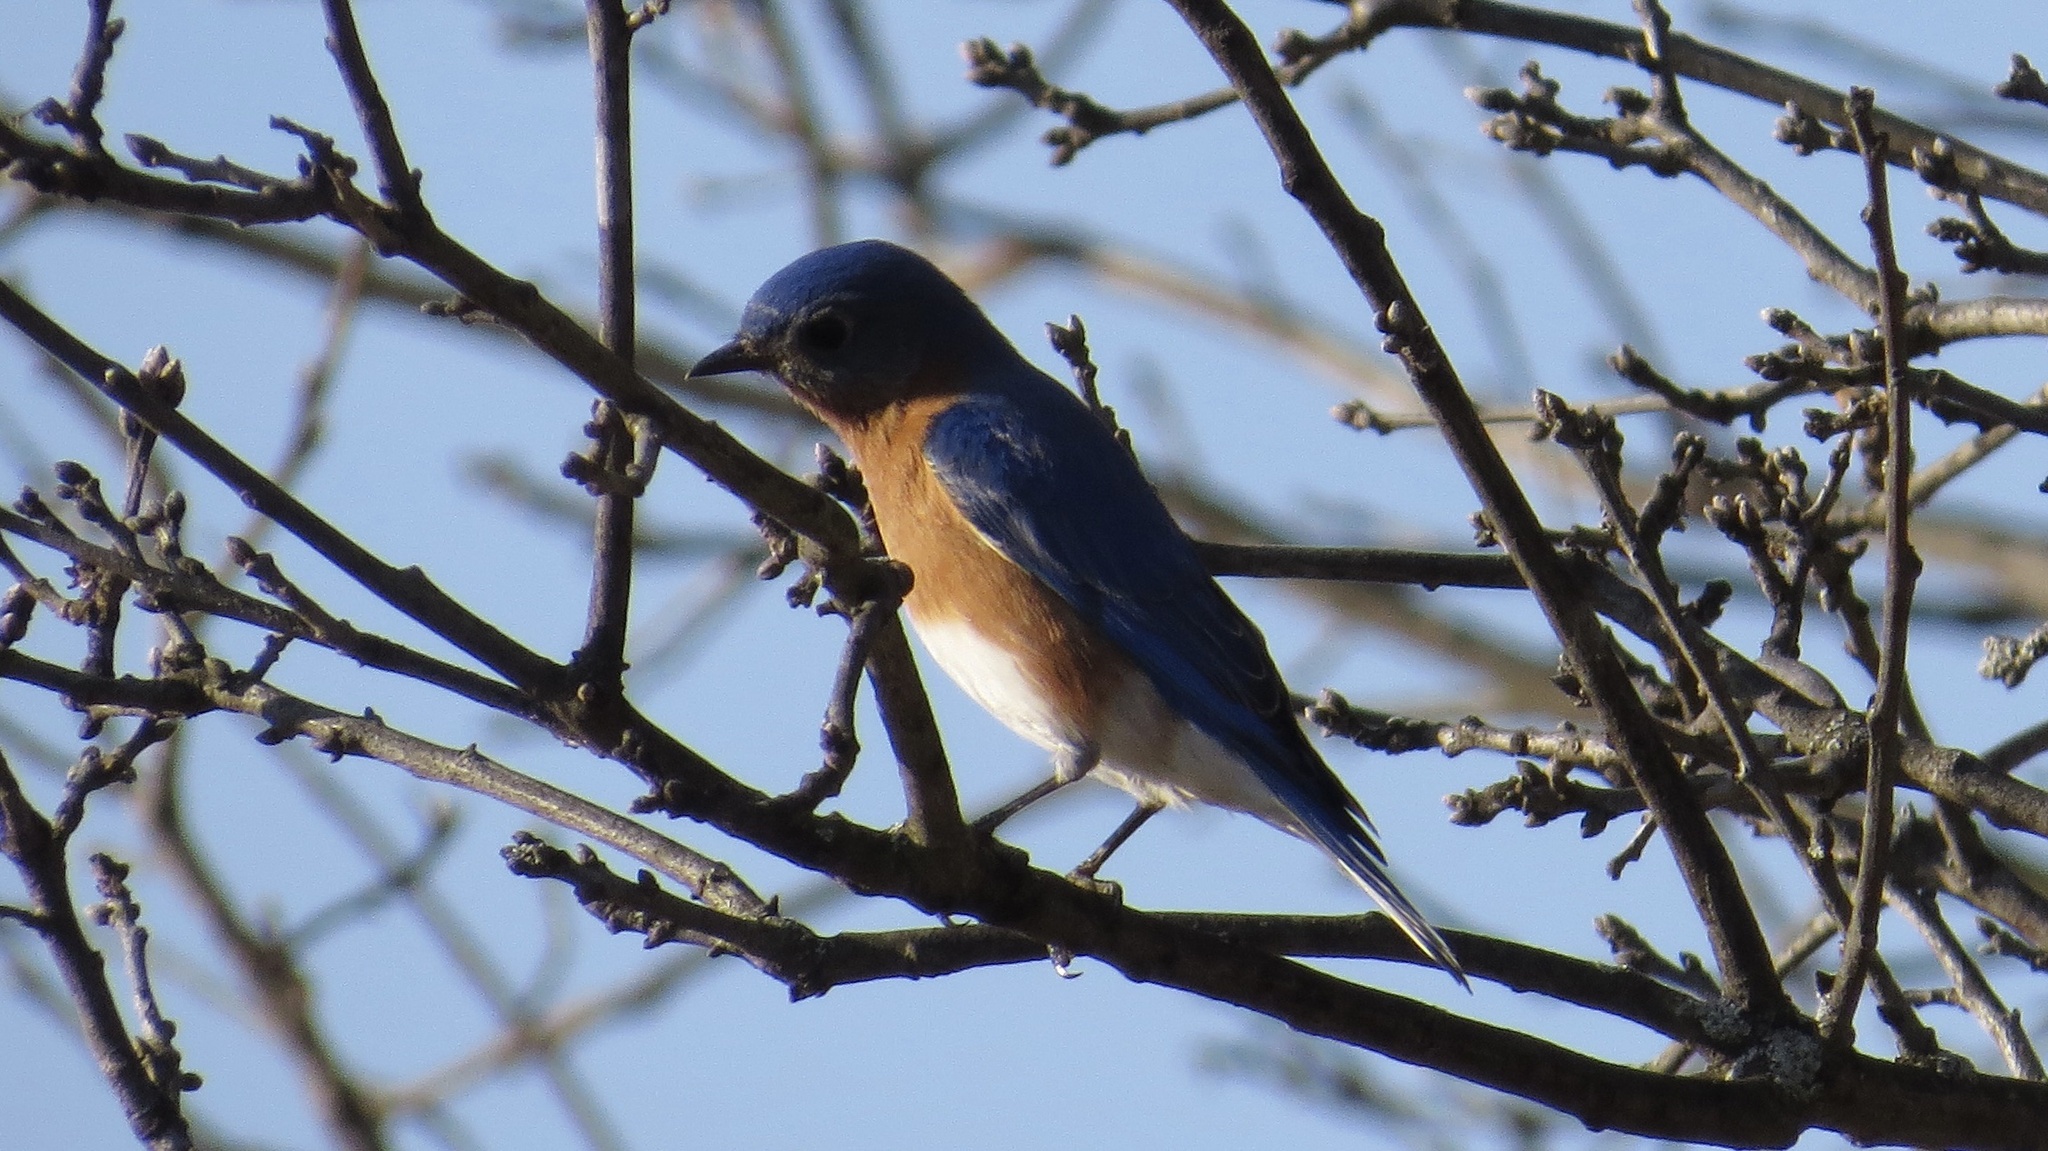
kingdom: Animalia
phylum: Chordata
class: Aves
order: Passeriformes
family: Turdidae
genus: Sialia
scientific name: Sialia sialis
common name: Eastern bluebird
